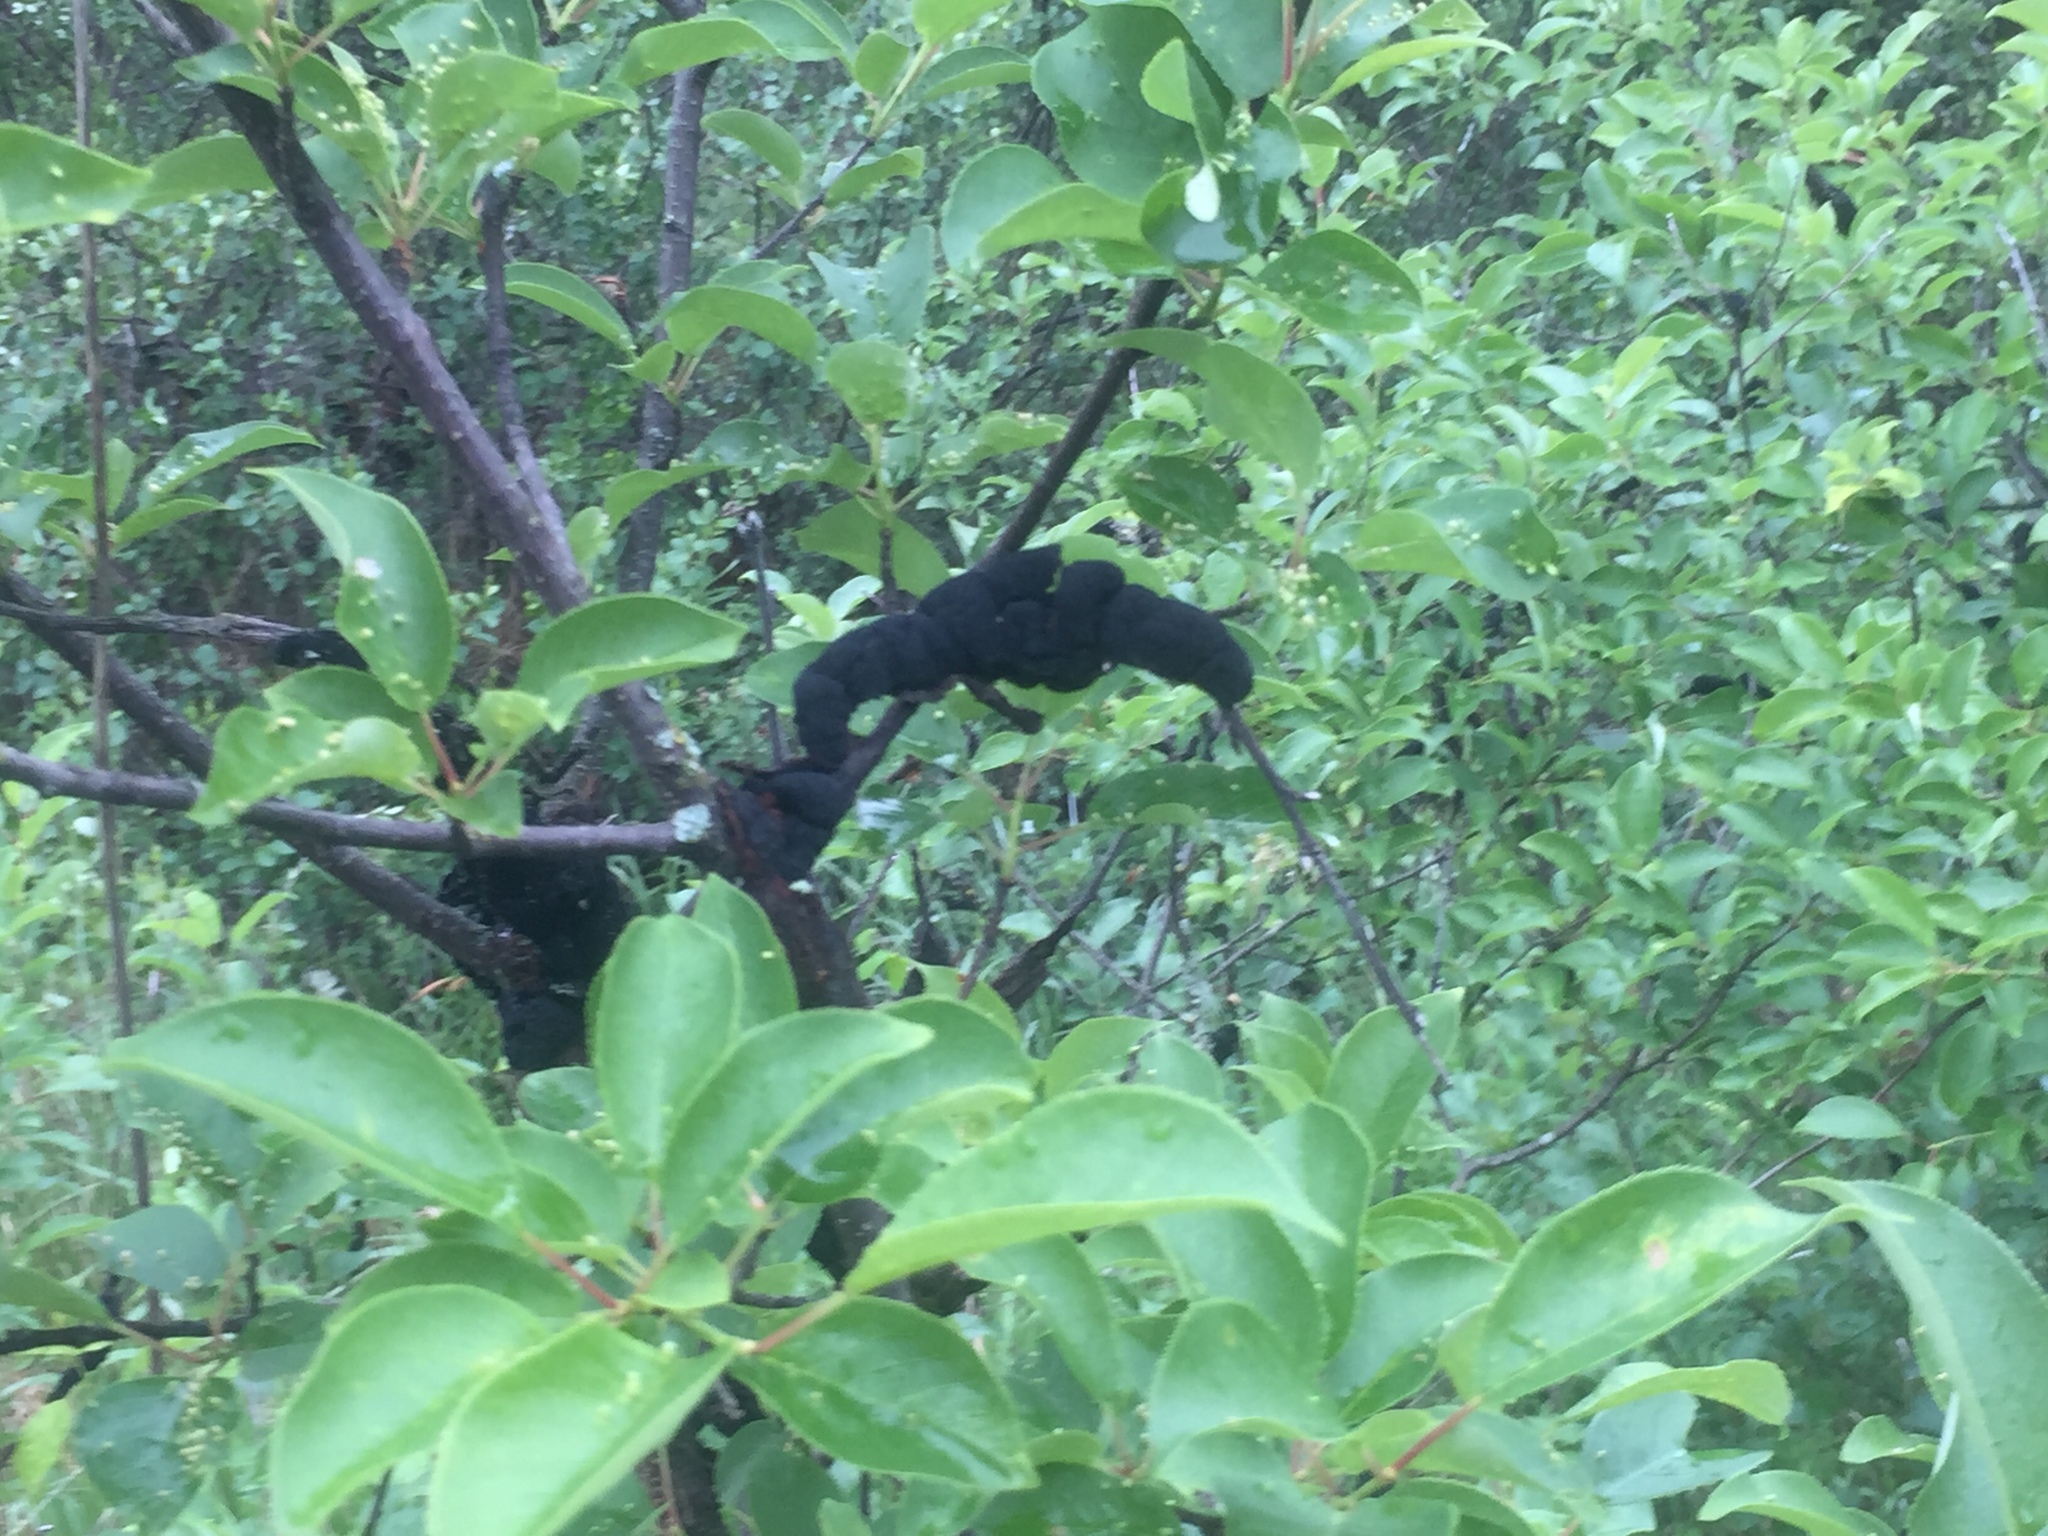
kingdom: Fungi
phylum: Ascomycota
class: Dothideomycetes
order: Venturiales
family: Venturiaceae
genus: Apiosporina
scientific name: Apiosporina morbosa
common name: Black knot
